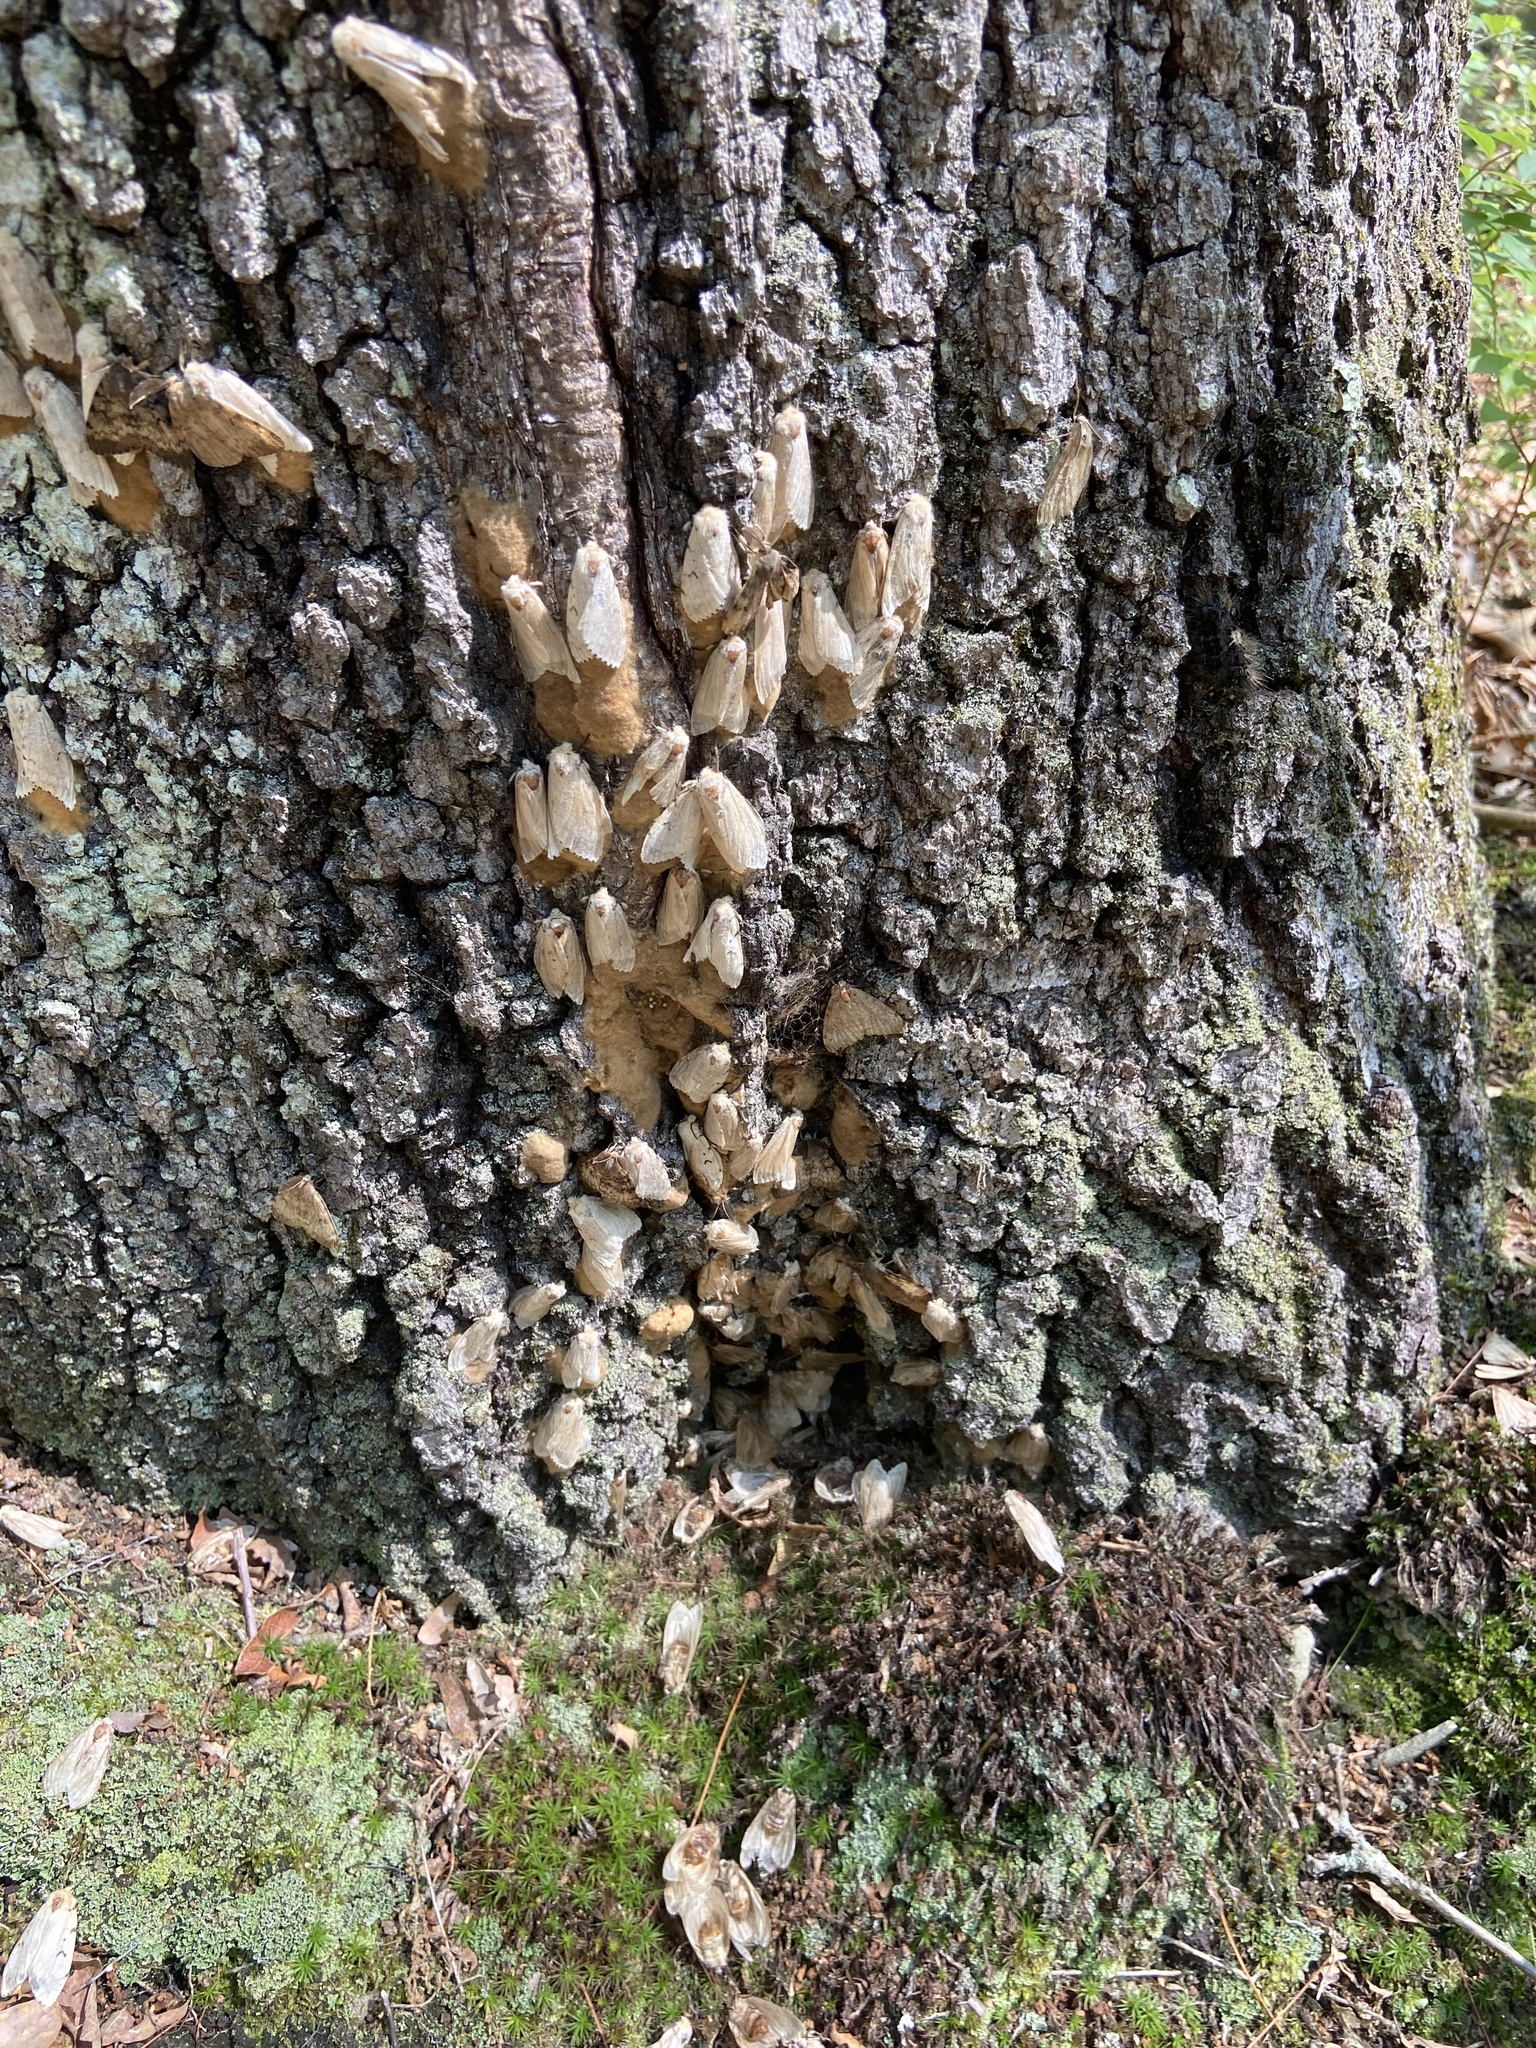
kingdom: Animalia
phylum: Arthropoda
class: Insecta
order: Lepidoptera
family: Erebidae
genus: Lymantria
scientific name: Lymantria dispar
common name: Gypsy moth
